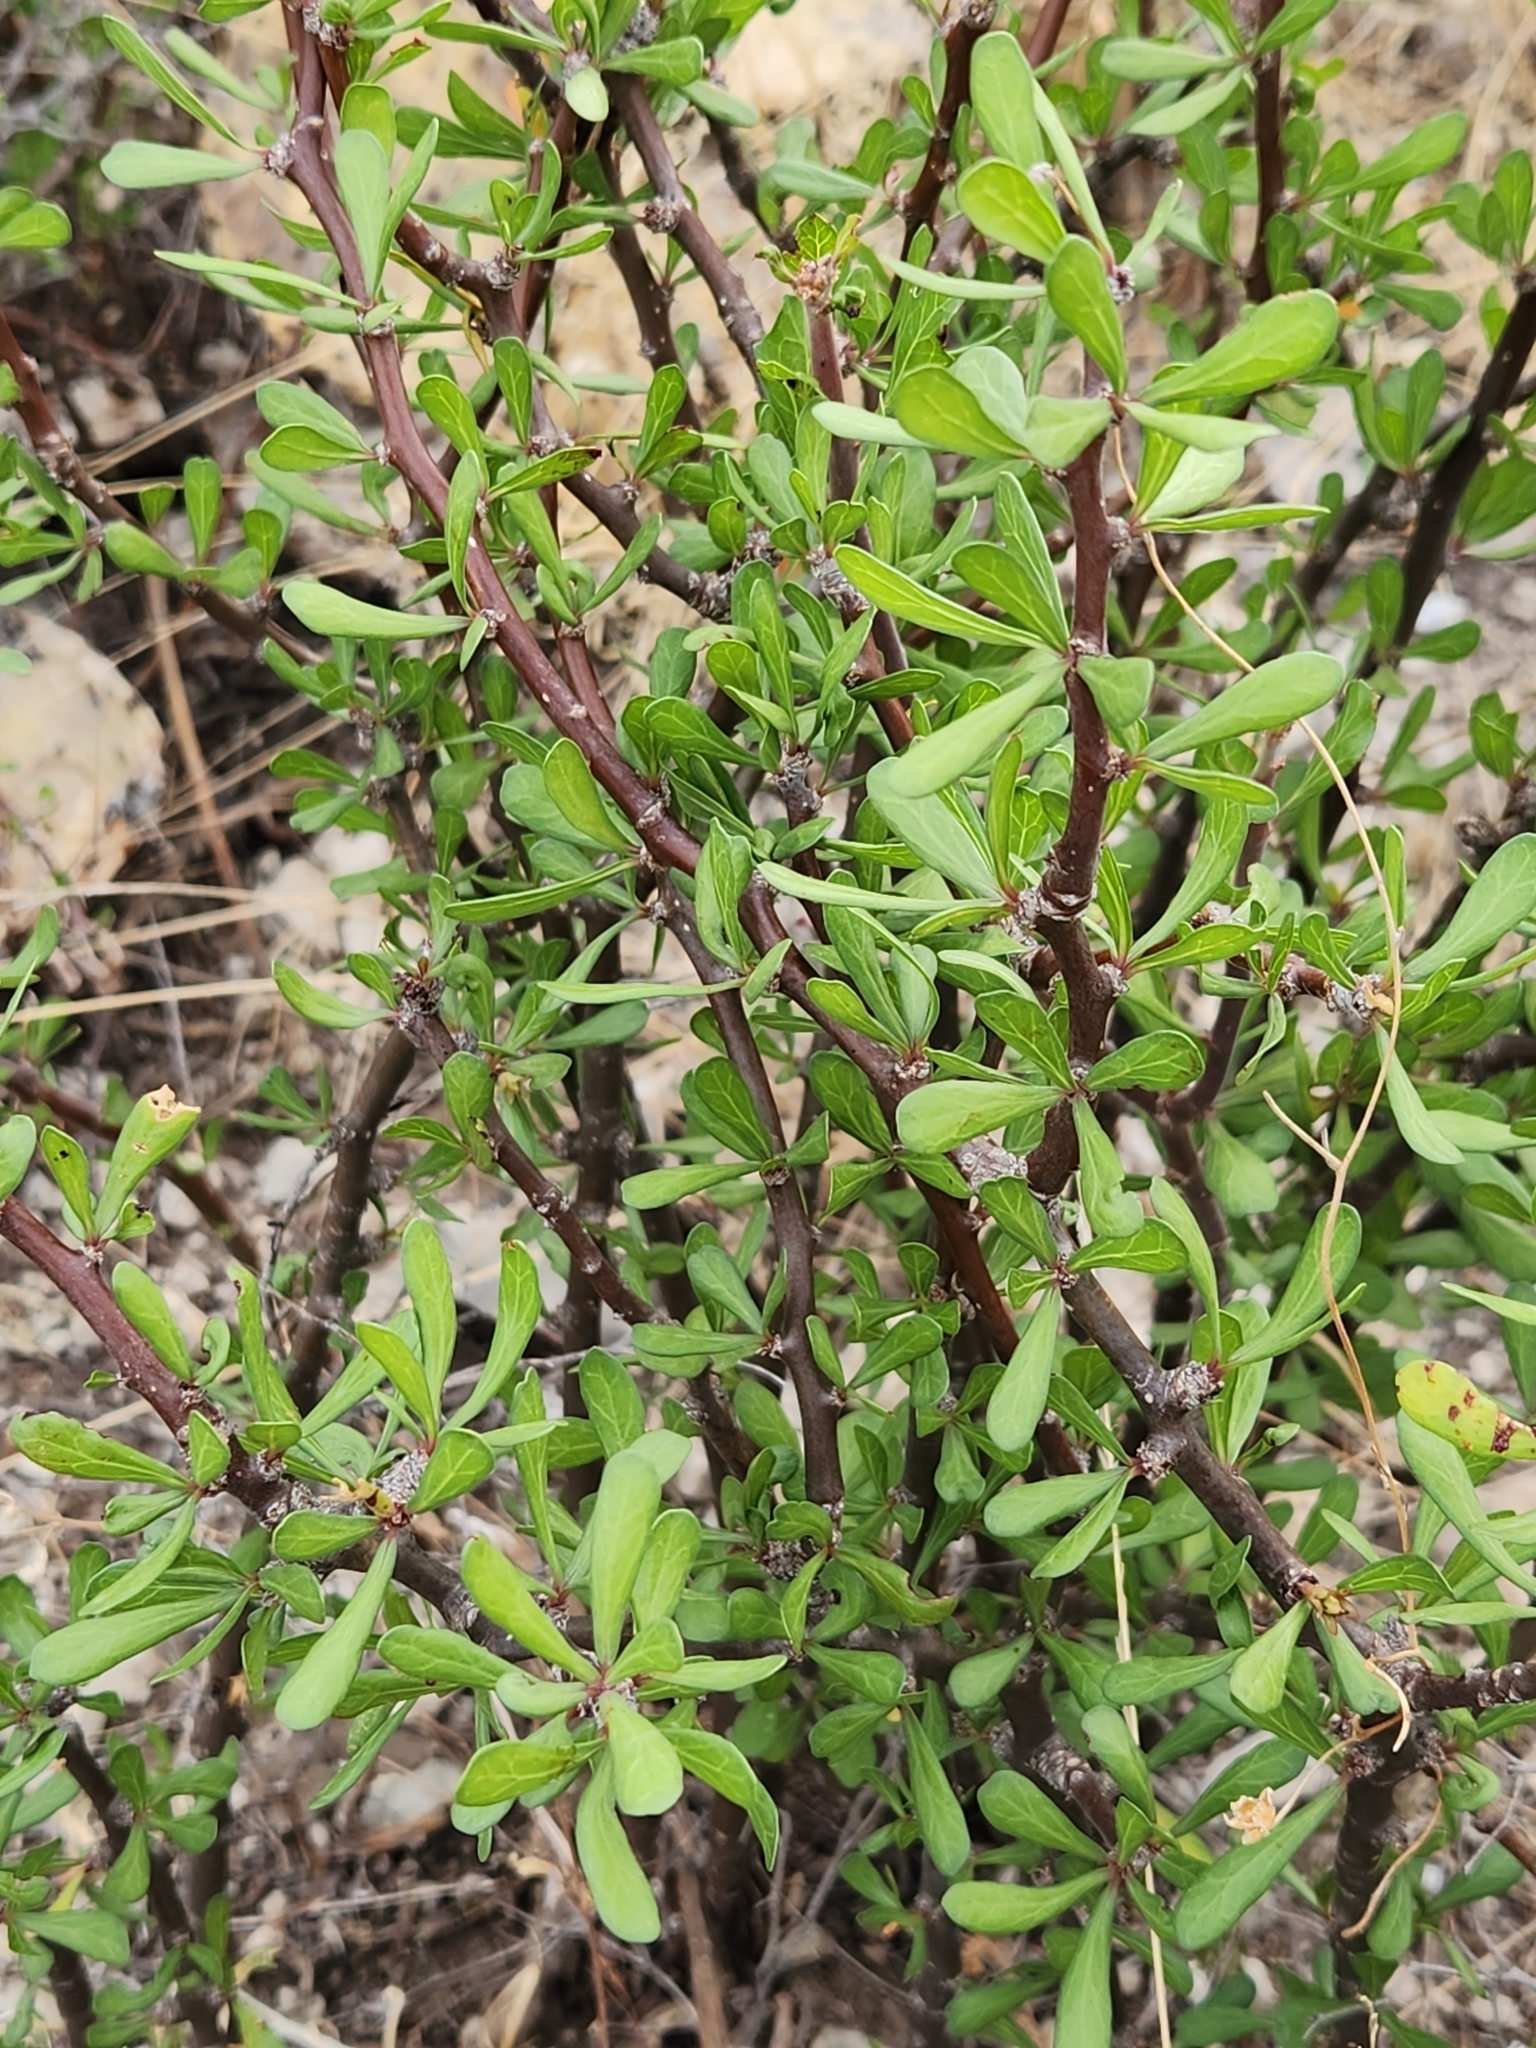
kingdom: Plantae
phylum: Tracheophyta
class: Magnoliopsida
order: Malpighiales
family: Euphorbiaceae
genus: Jatropha
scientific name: Jatropha dioica
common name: Leatherstem
